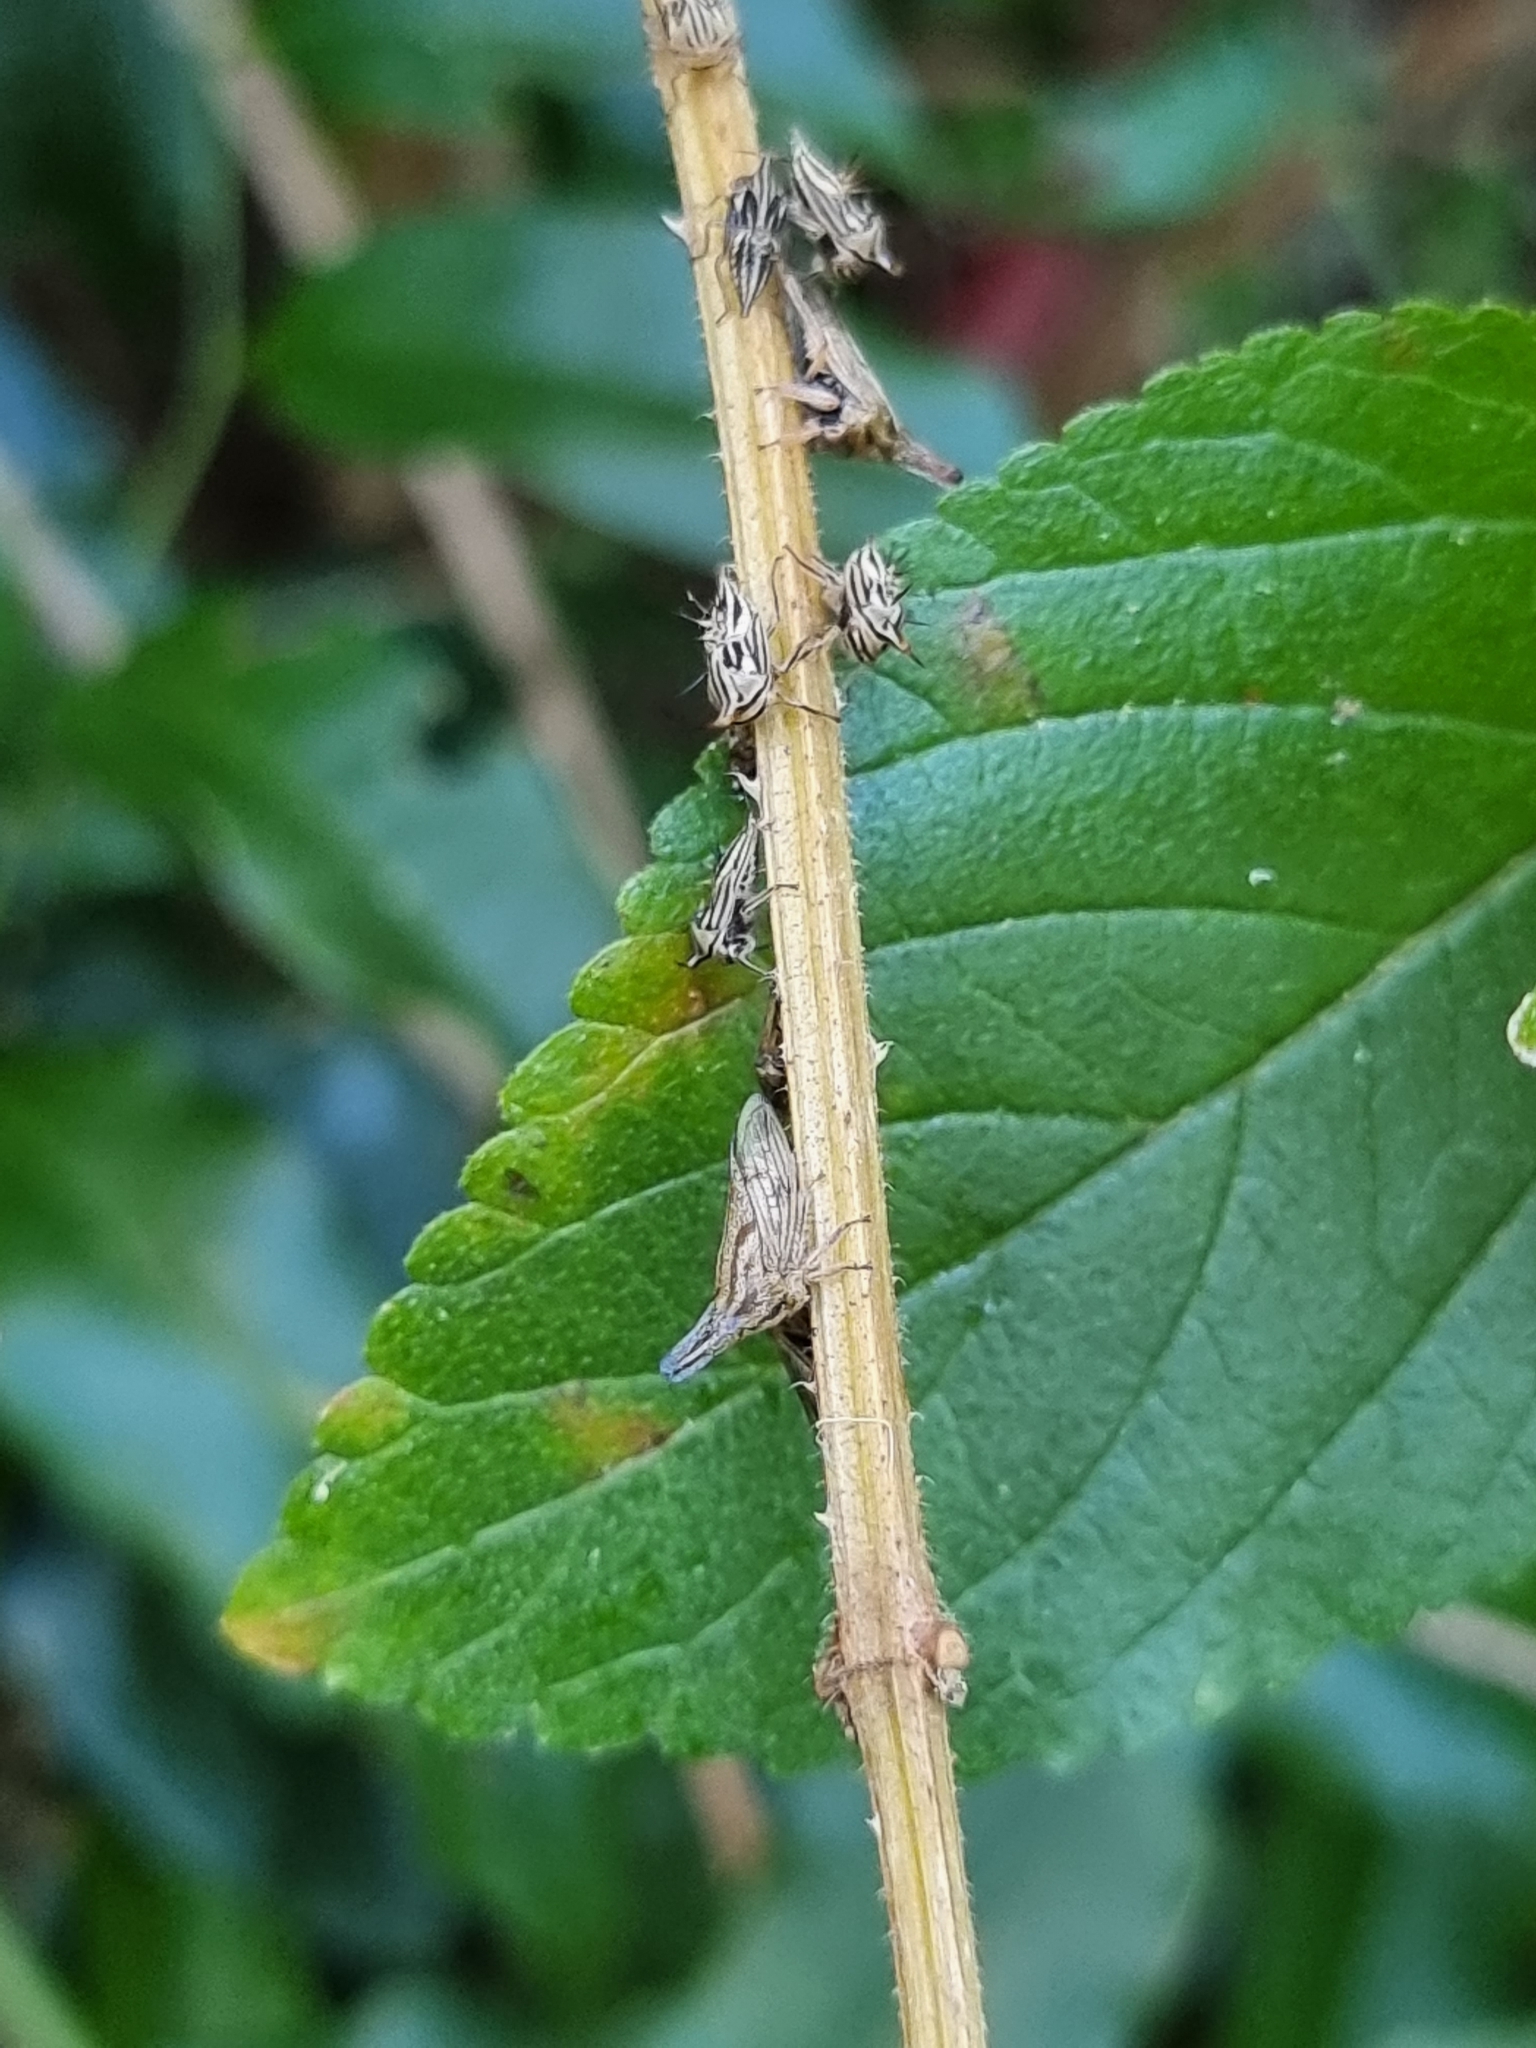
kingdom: Animalia
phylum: Arthropoda
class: Insecta
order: Hemiptera
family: Membracidae
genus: Aconophora
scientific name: Aconophora compressa
